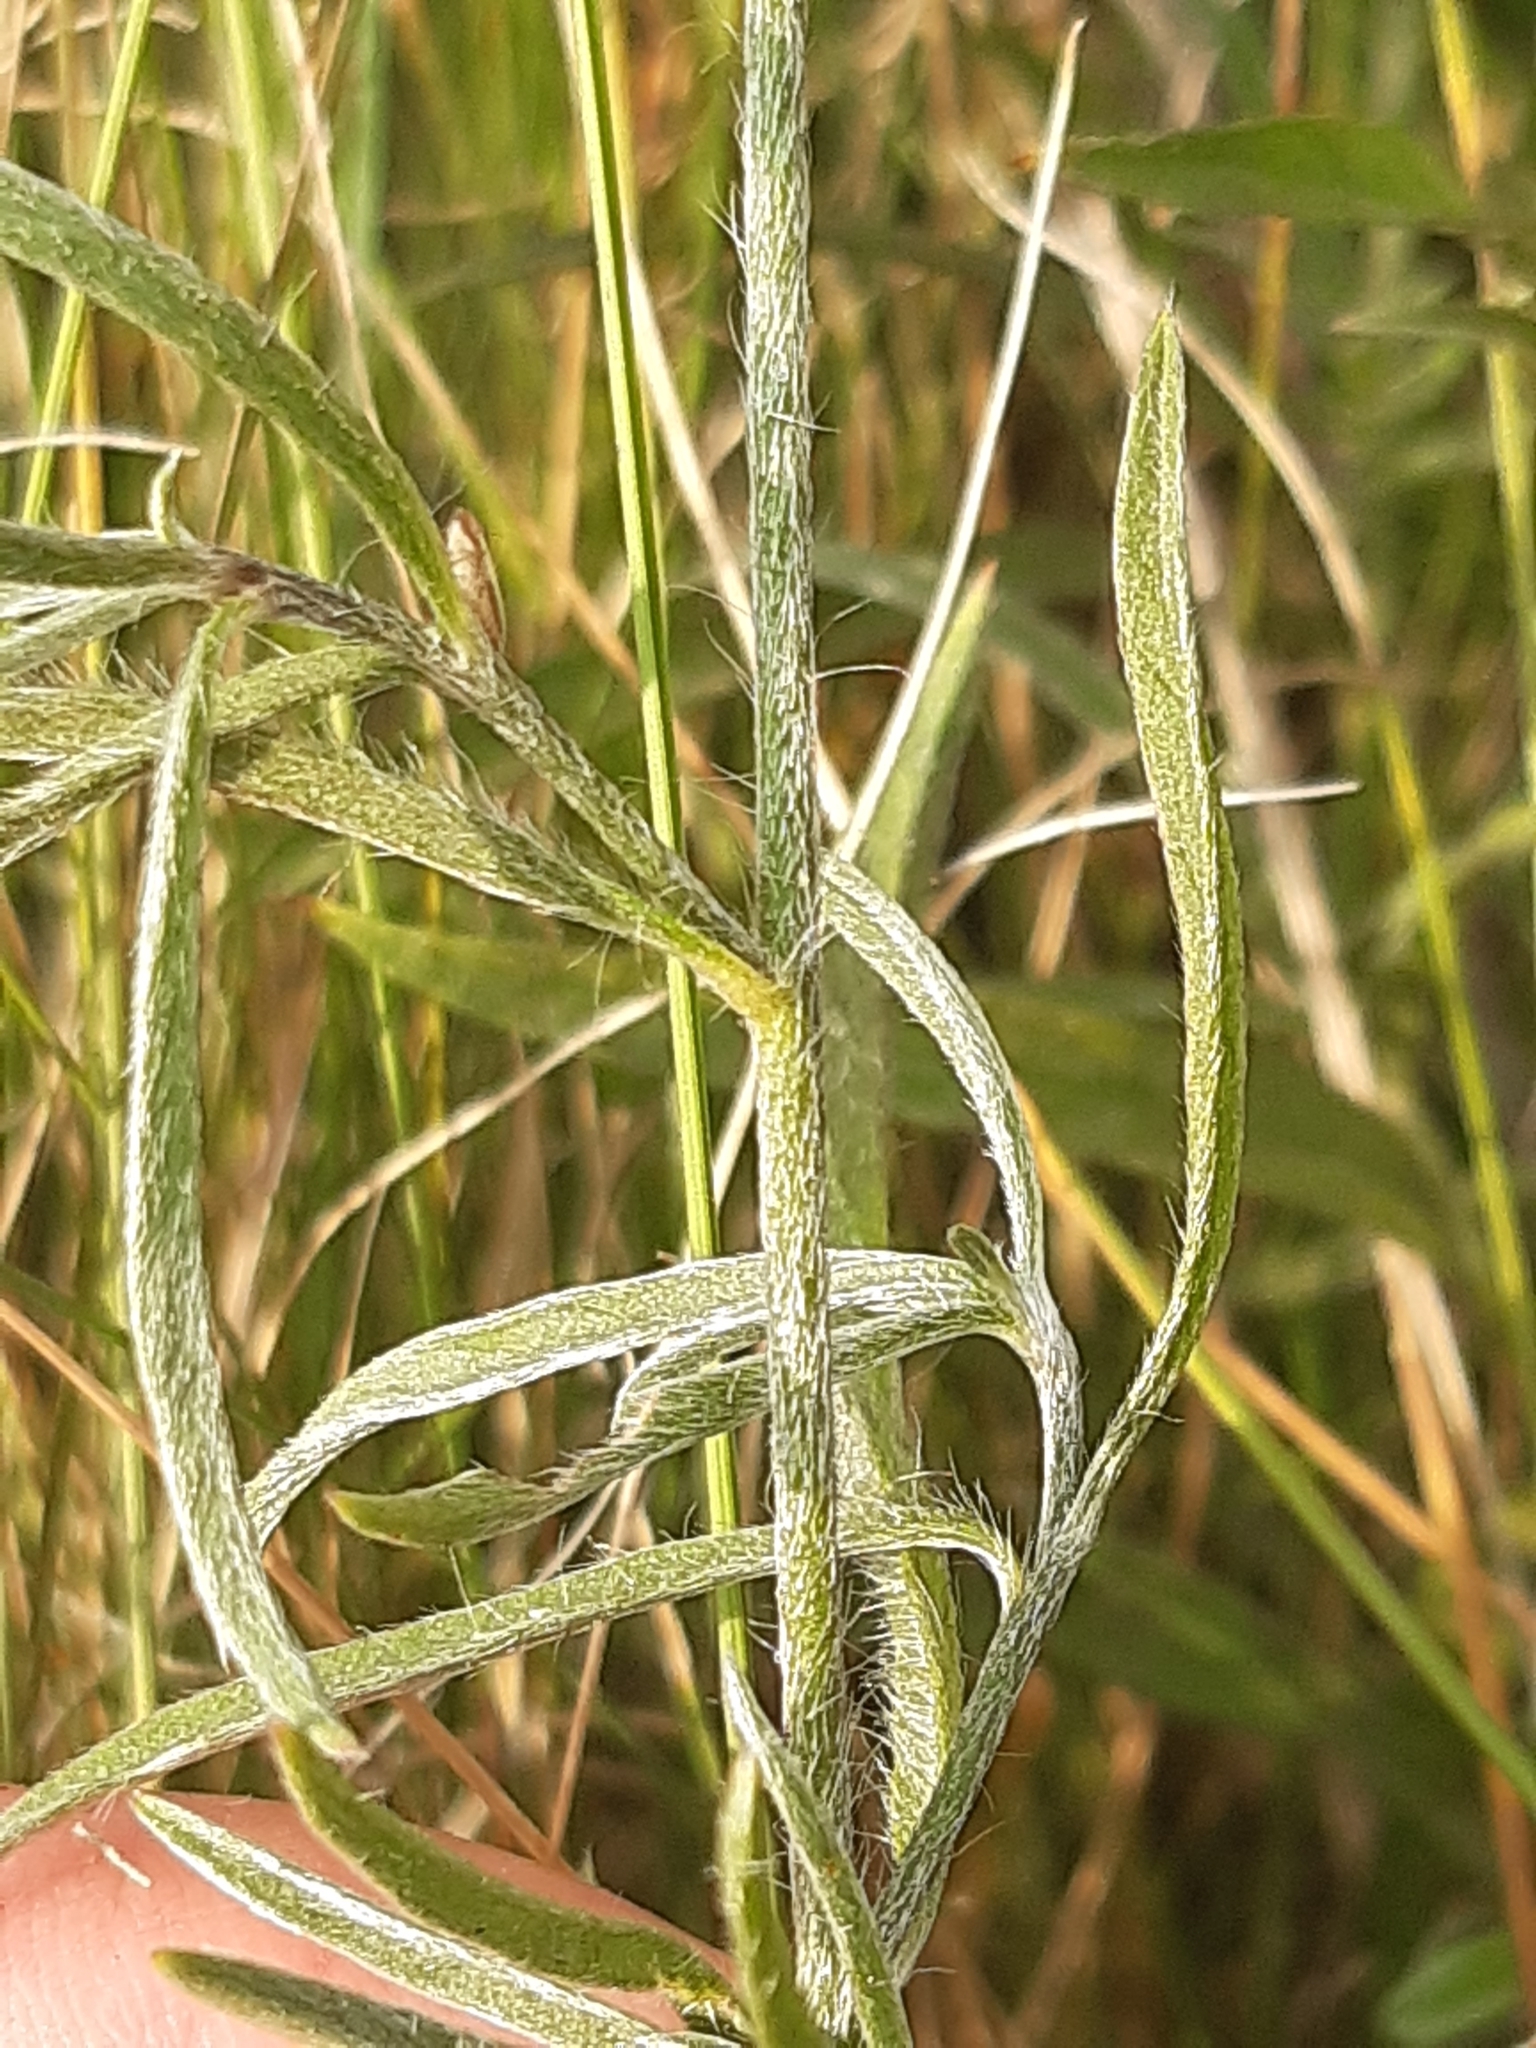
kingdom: Plantae
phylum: Tracheophyta
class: Magnoliopsida
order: Solanales
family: Convolvulaceae
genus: Convolvulus
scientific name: Convolvulus cantabrica
